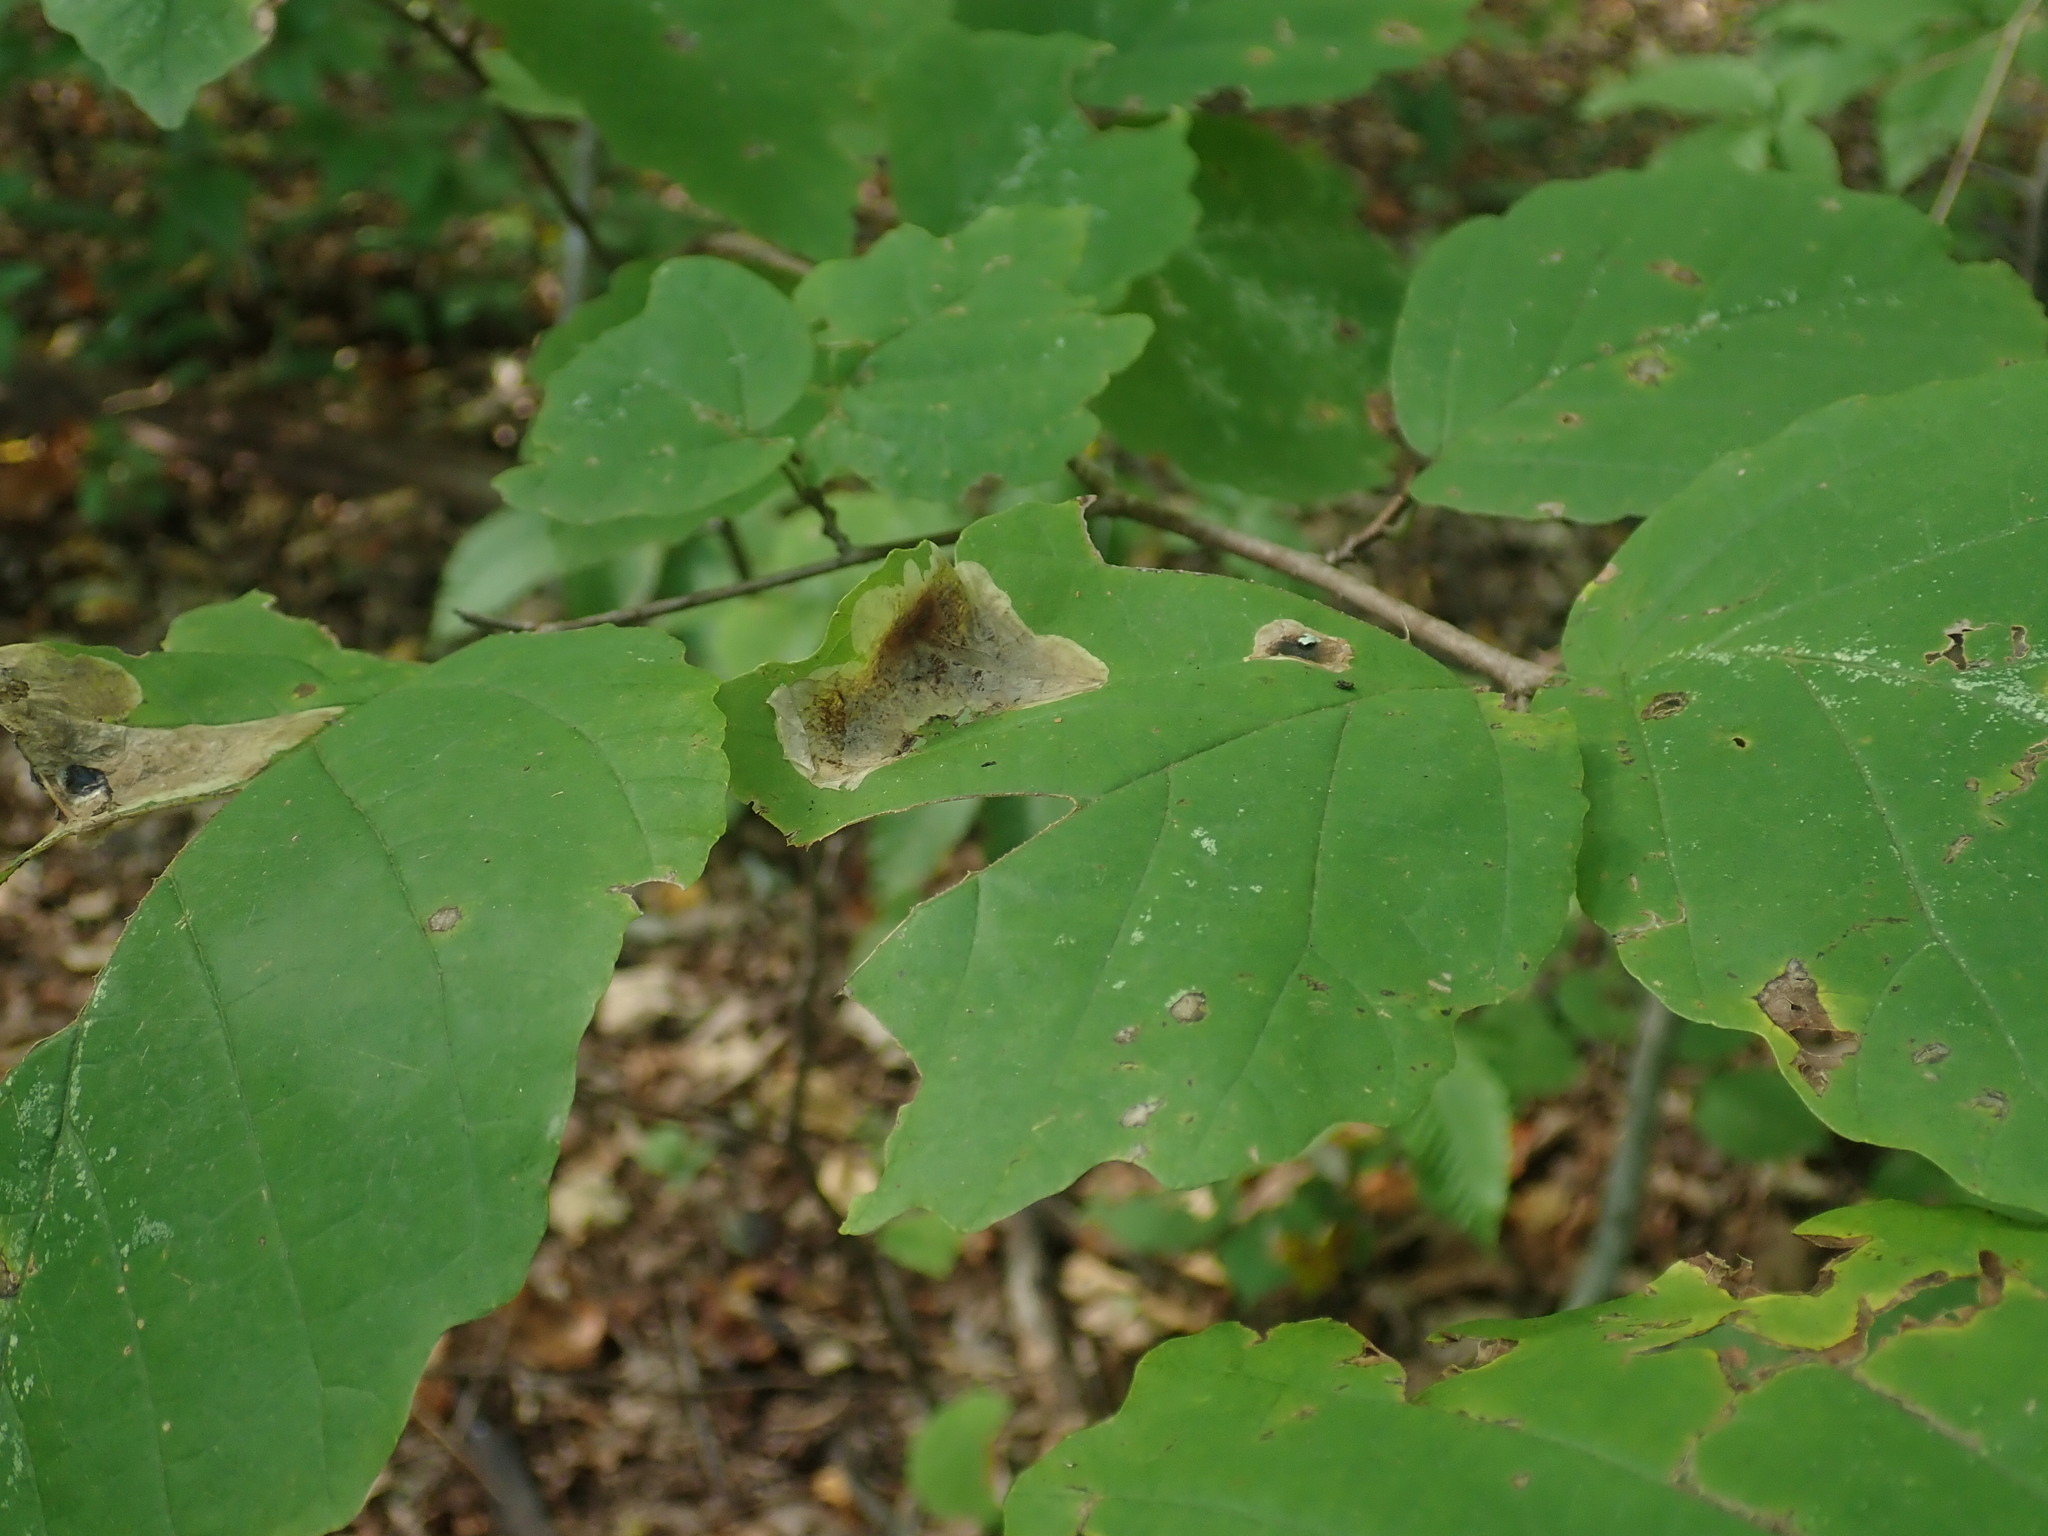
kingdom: Animalia
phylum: Arthropoda
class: Insecta
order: Lepidoptera
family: Gracillariidae
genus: Cameraria
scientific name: Cameraria hamameliella
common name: Witchhazel leafminer
